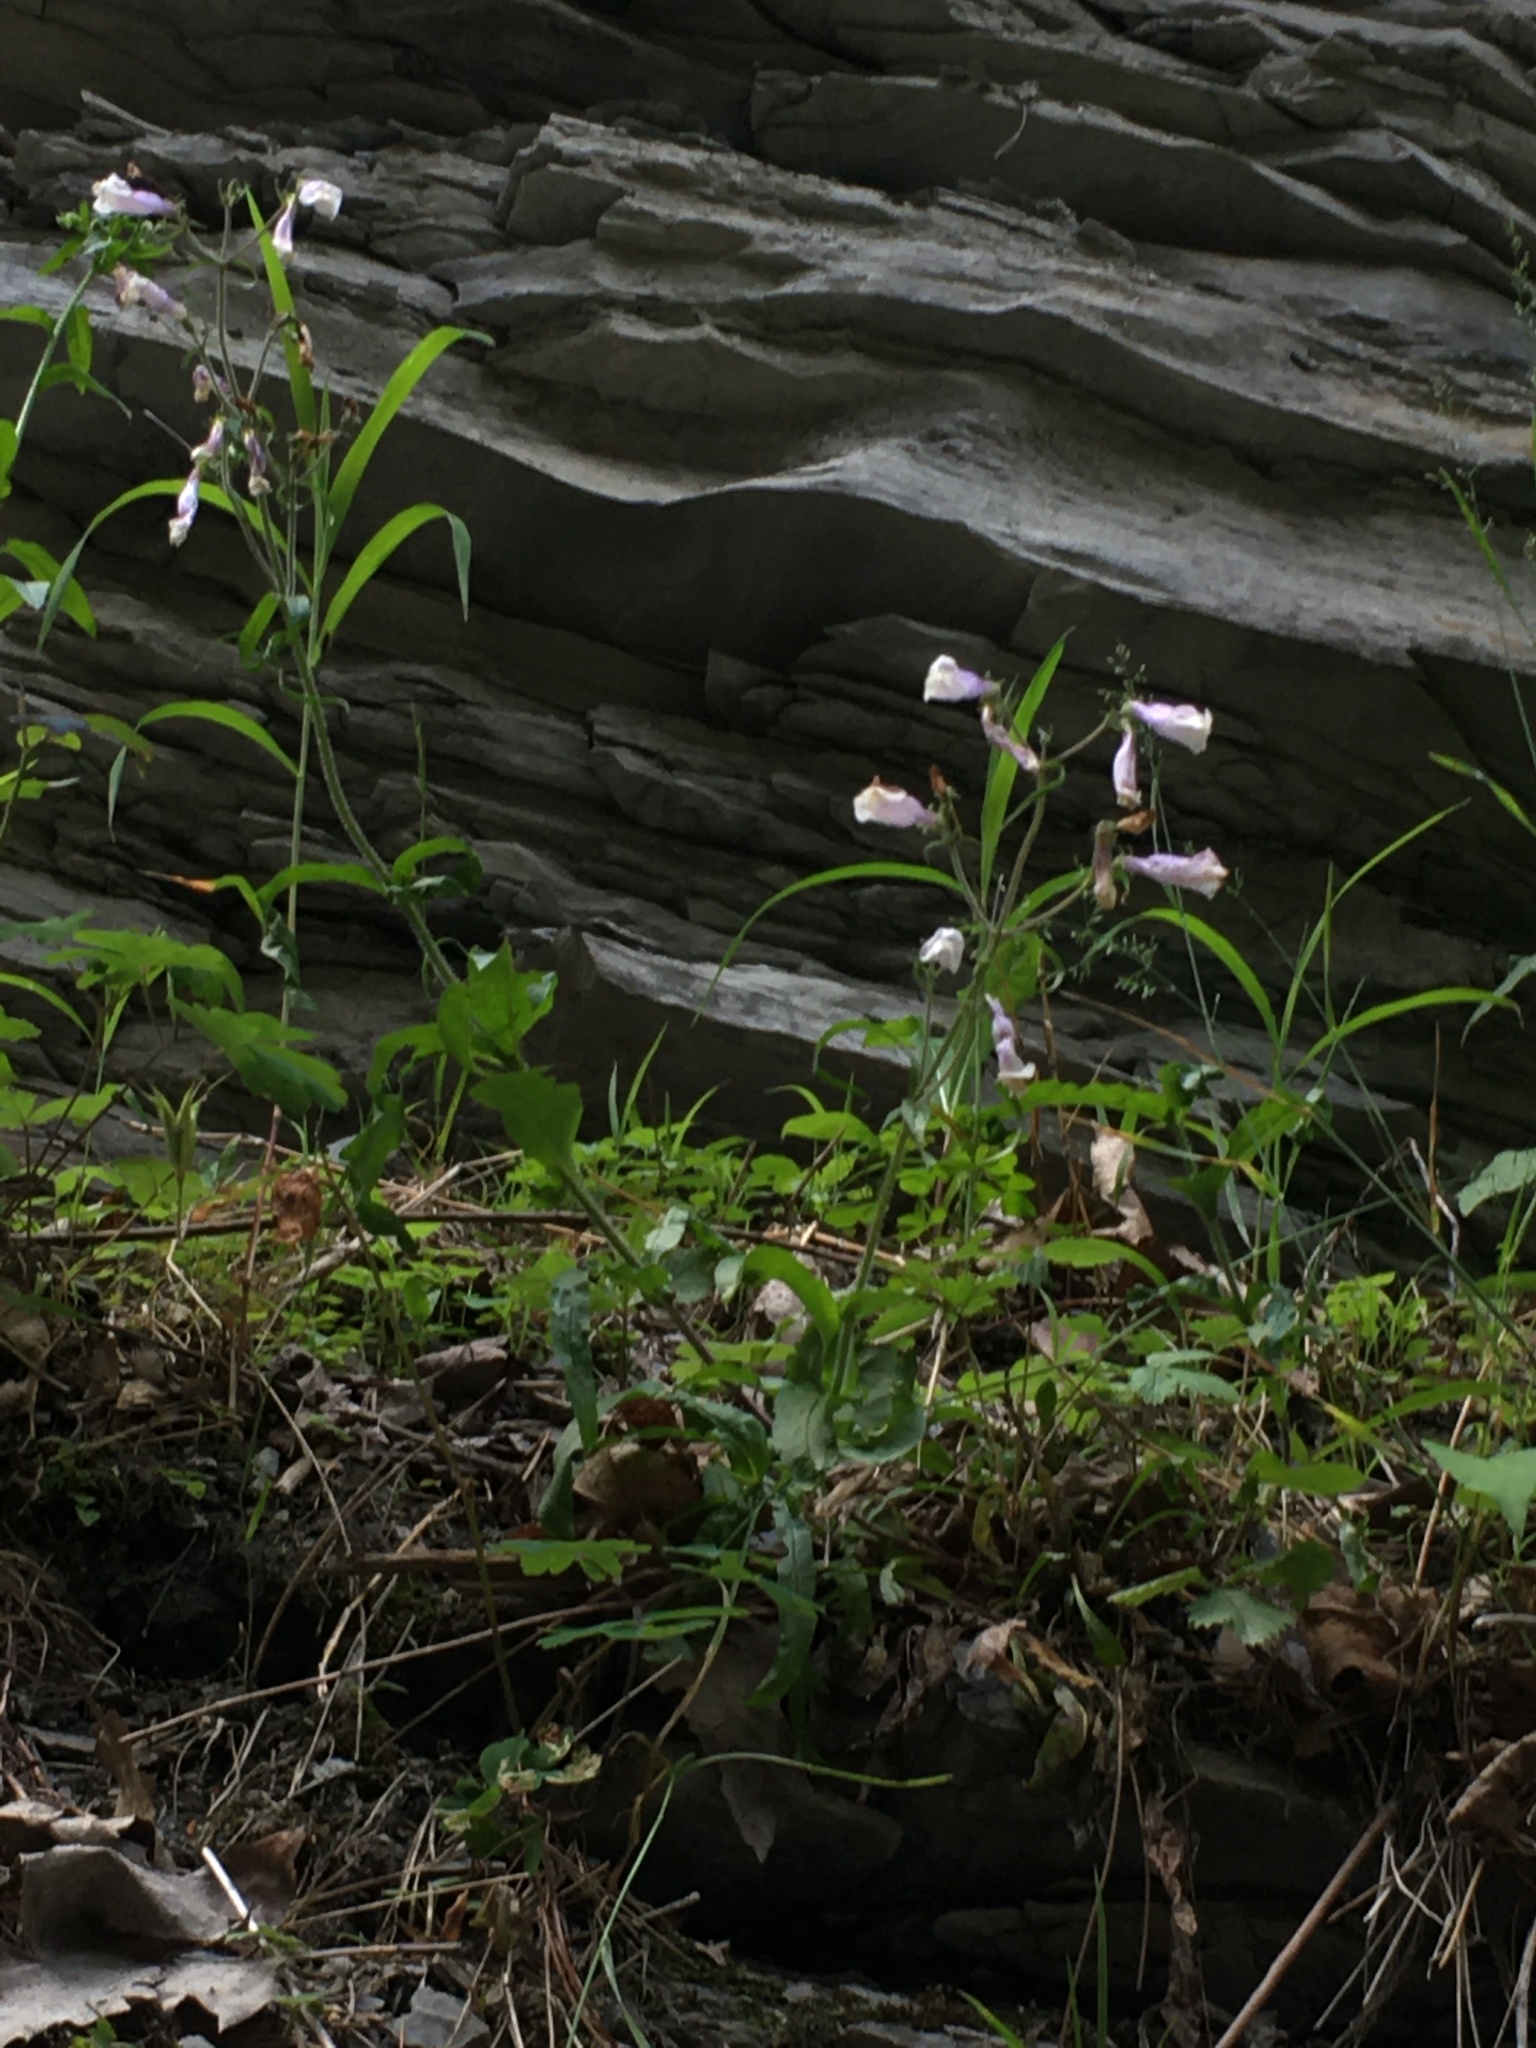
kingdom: Plantae
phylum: Tracheophyta
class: Magnoliopsida
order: Lamiales
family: Plantaginaceae
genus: Penstemon
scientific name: Penstemon hirsutus
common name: Hairy beardtongue
